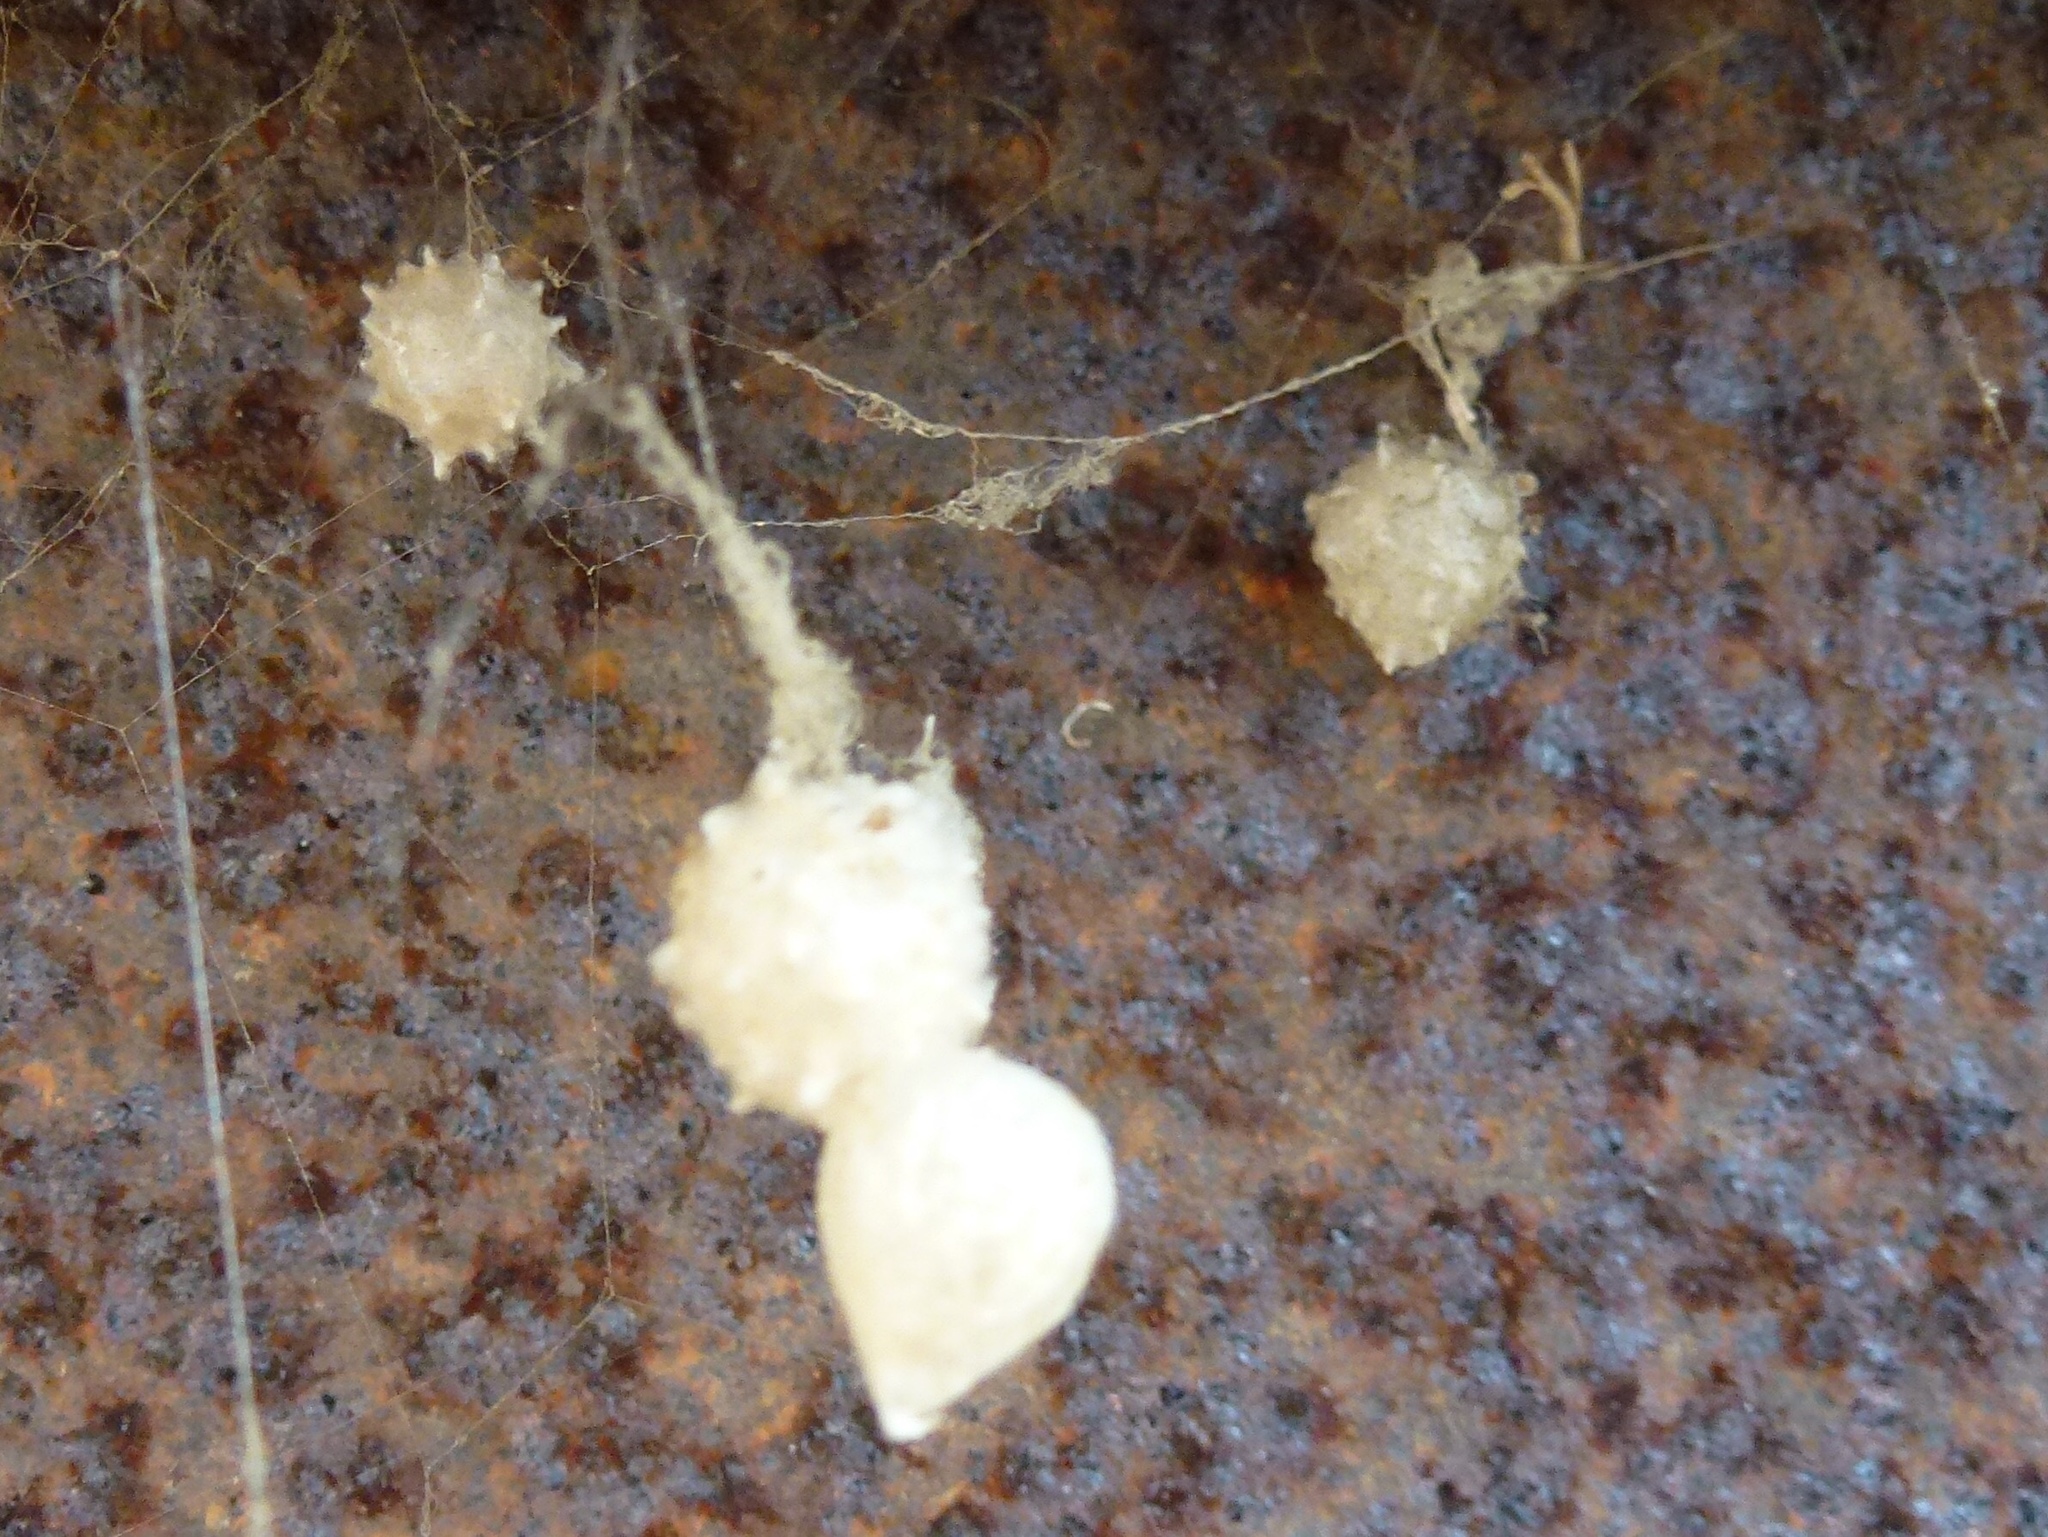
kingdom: Animalia
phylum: Arthropoda
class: Arachnida
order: Araneae
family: Theridiidae
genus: Latrodectus
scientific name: Latrodectus geometricus
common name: Brown widow spider
